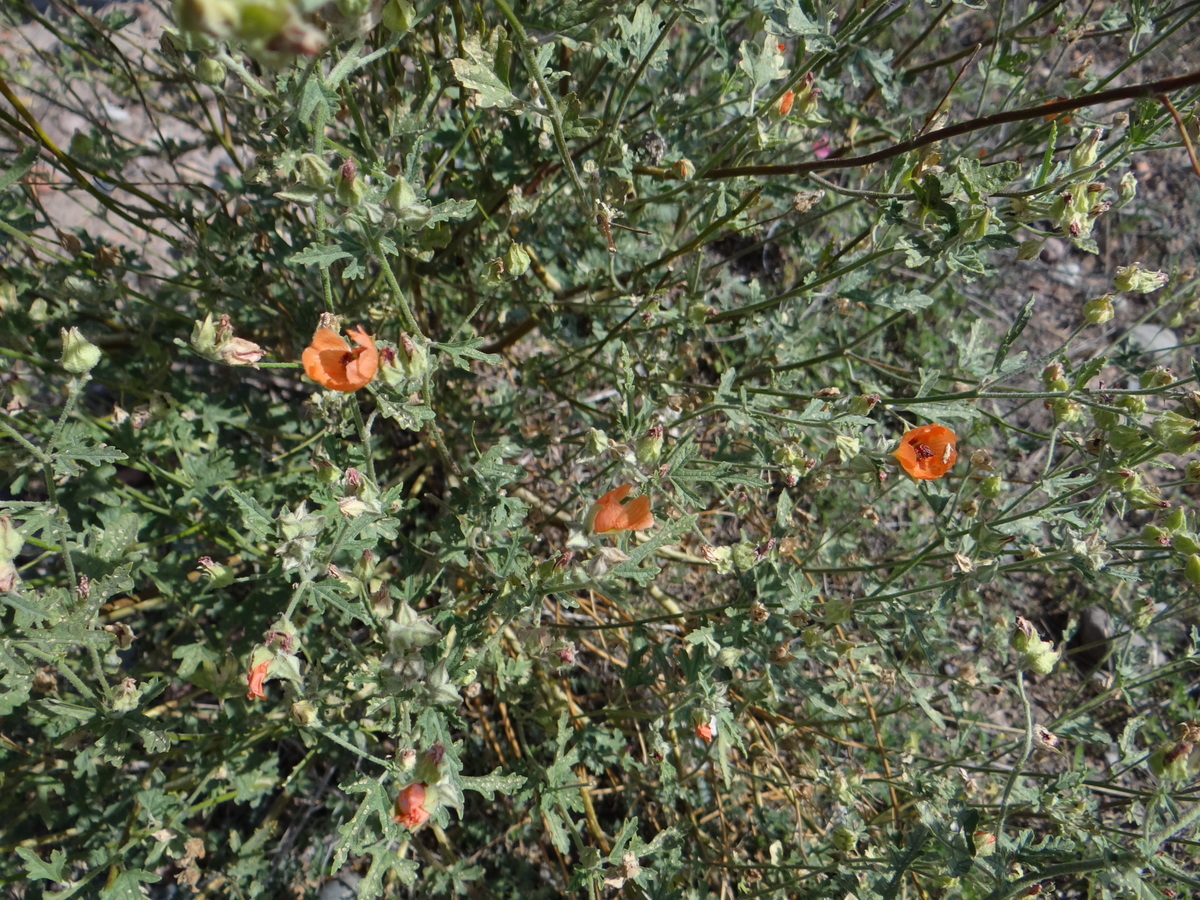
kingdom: Plantae
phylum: Tracheophyta
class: Magnoliopsida
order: Malvales
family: Malvaceae
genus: Sphaeralcea
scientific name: Sphaeralcea miniata
